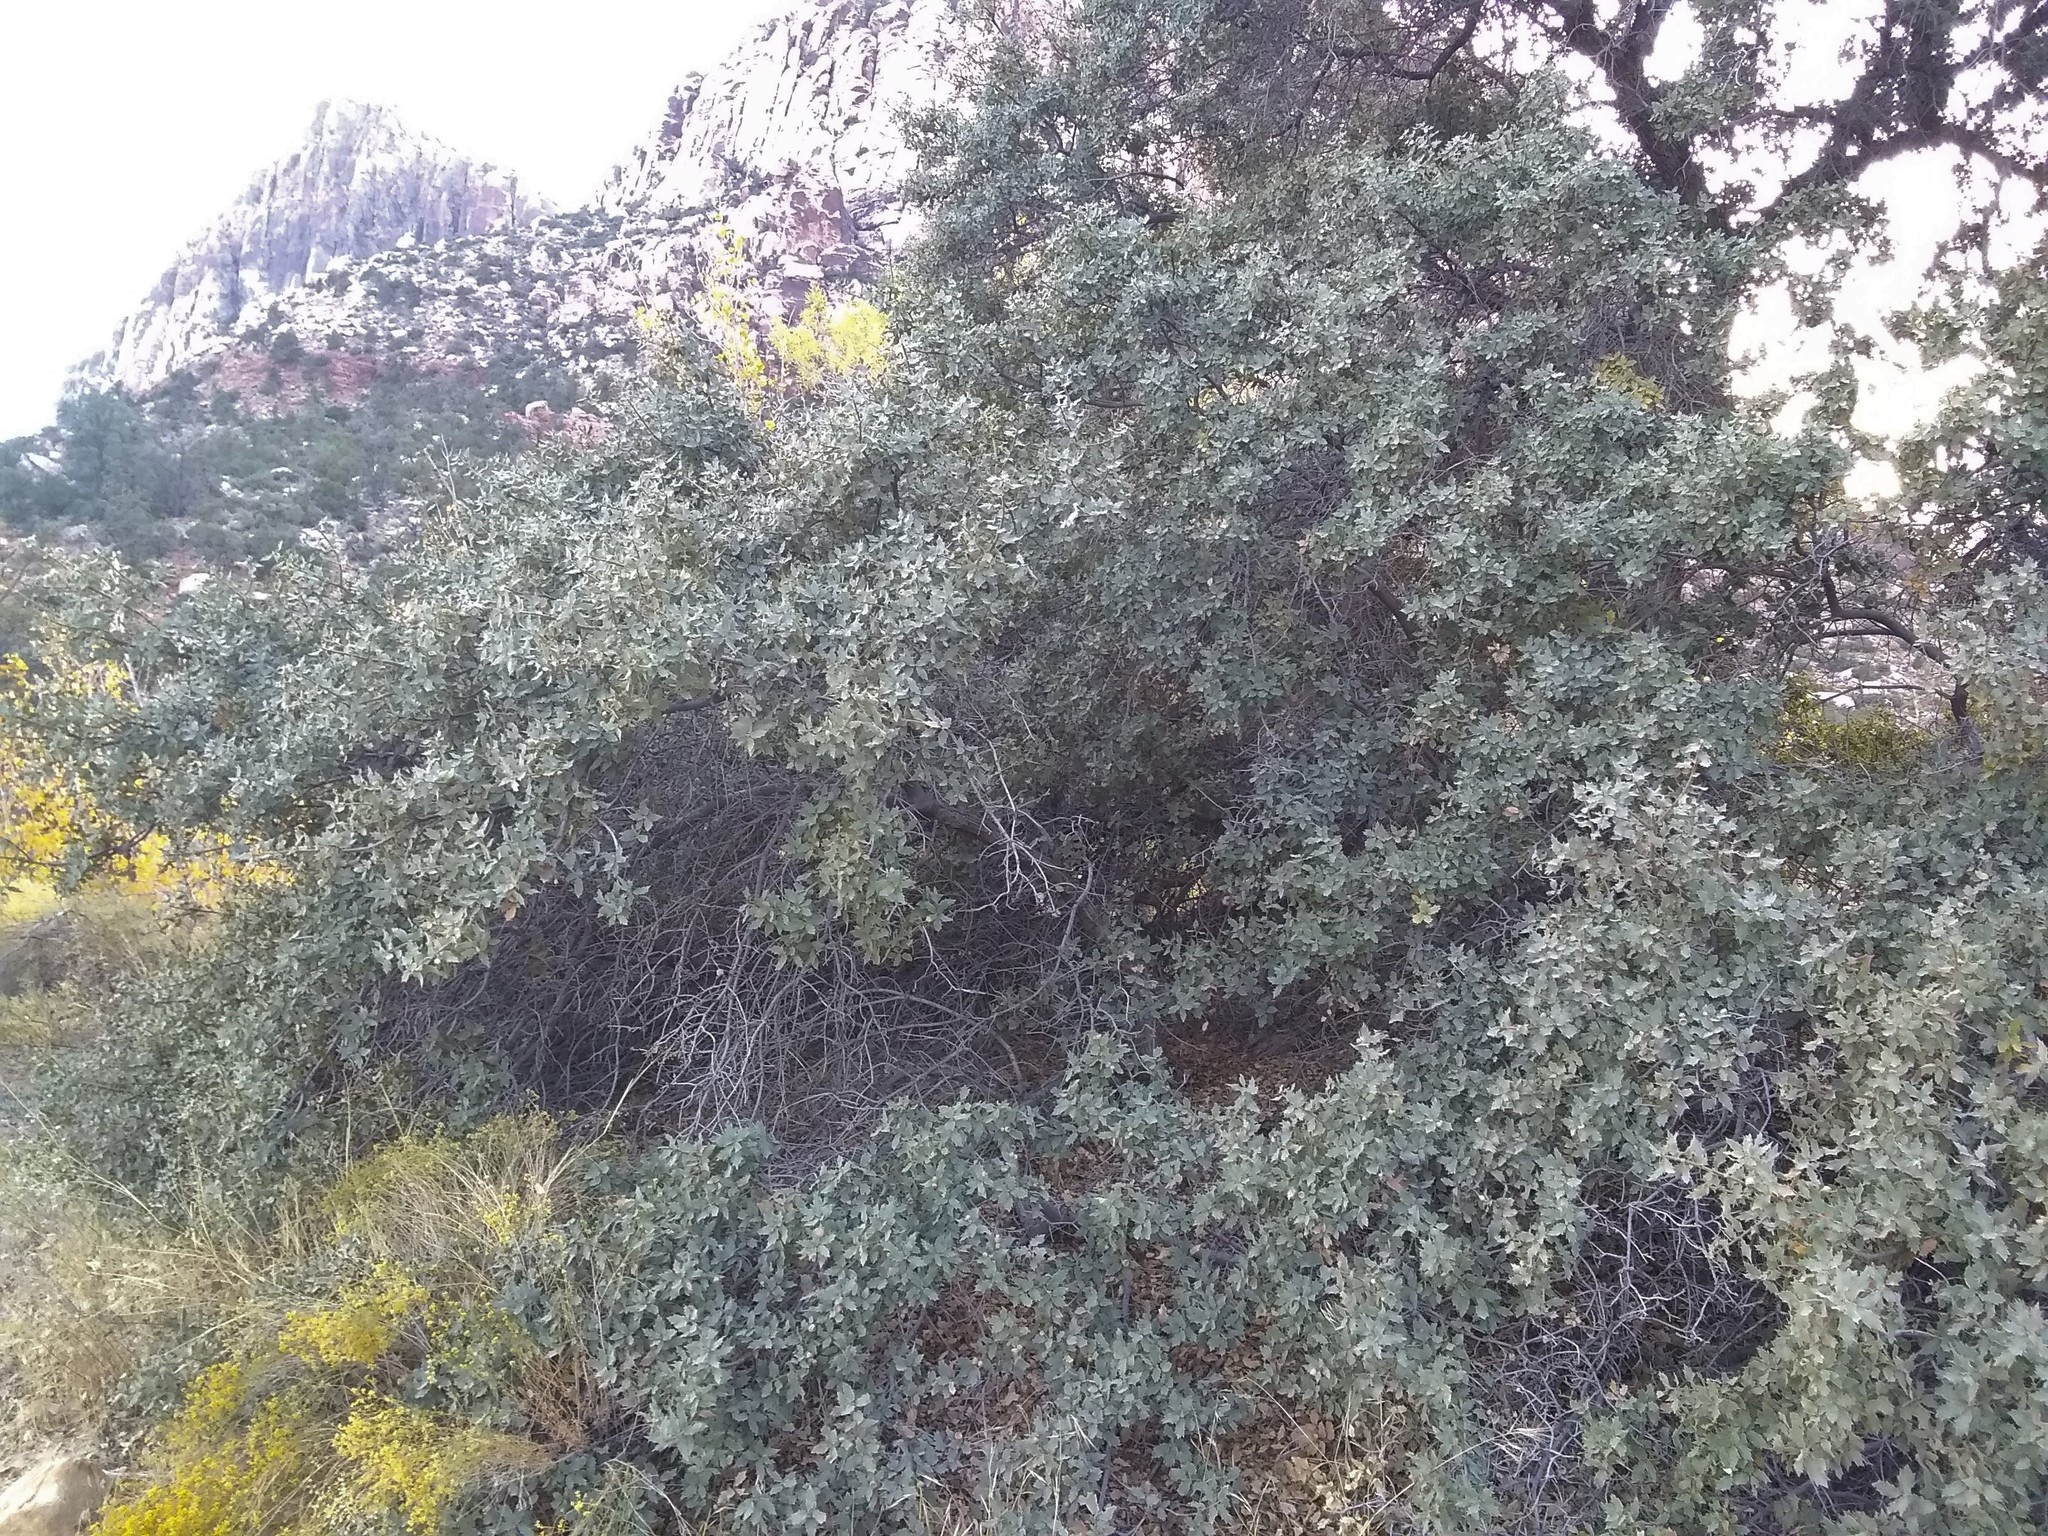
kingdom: Plantae
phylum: Tracheophyta
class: Magnoliopsida
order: Fagales
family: Fagaceae
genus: Quercus
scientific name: Quercus turbinella
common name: Sonoran scrub oak
